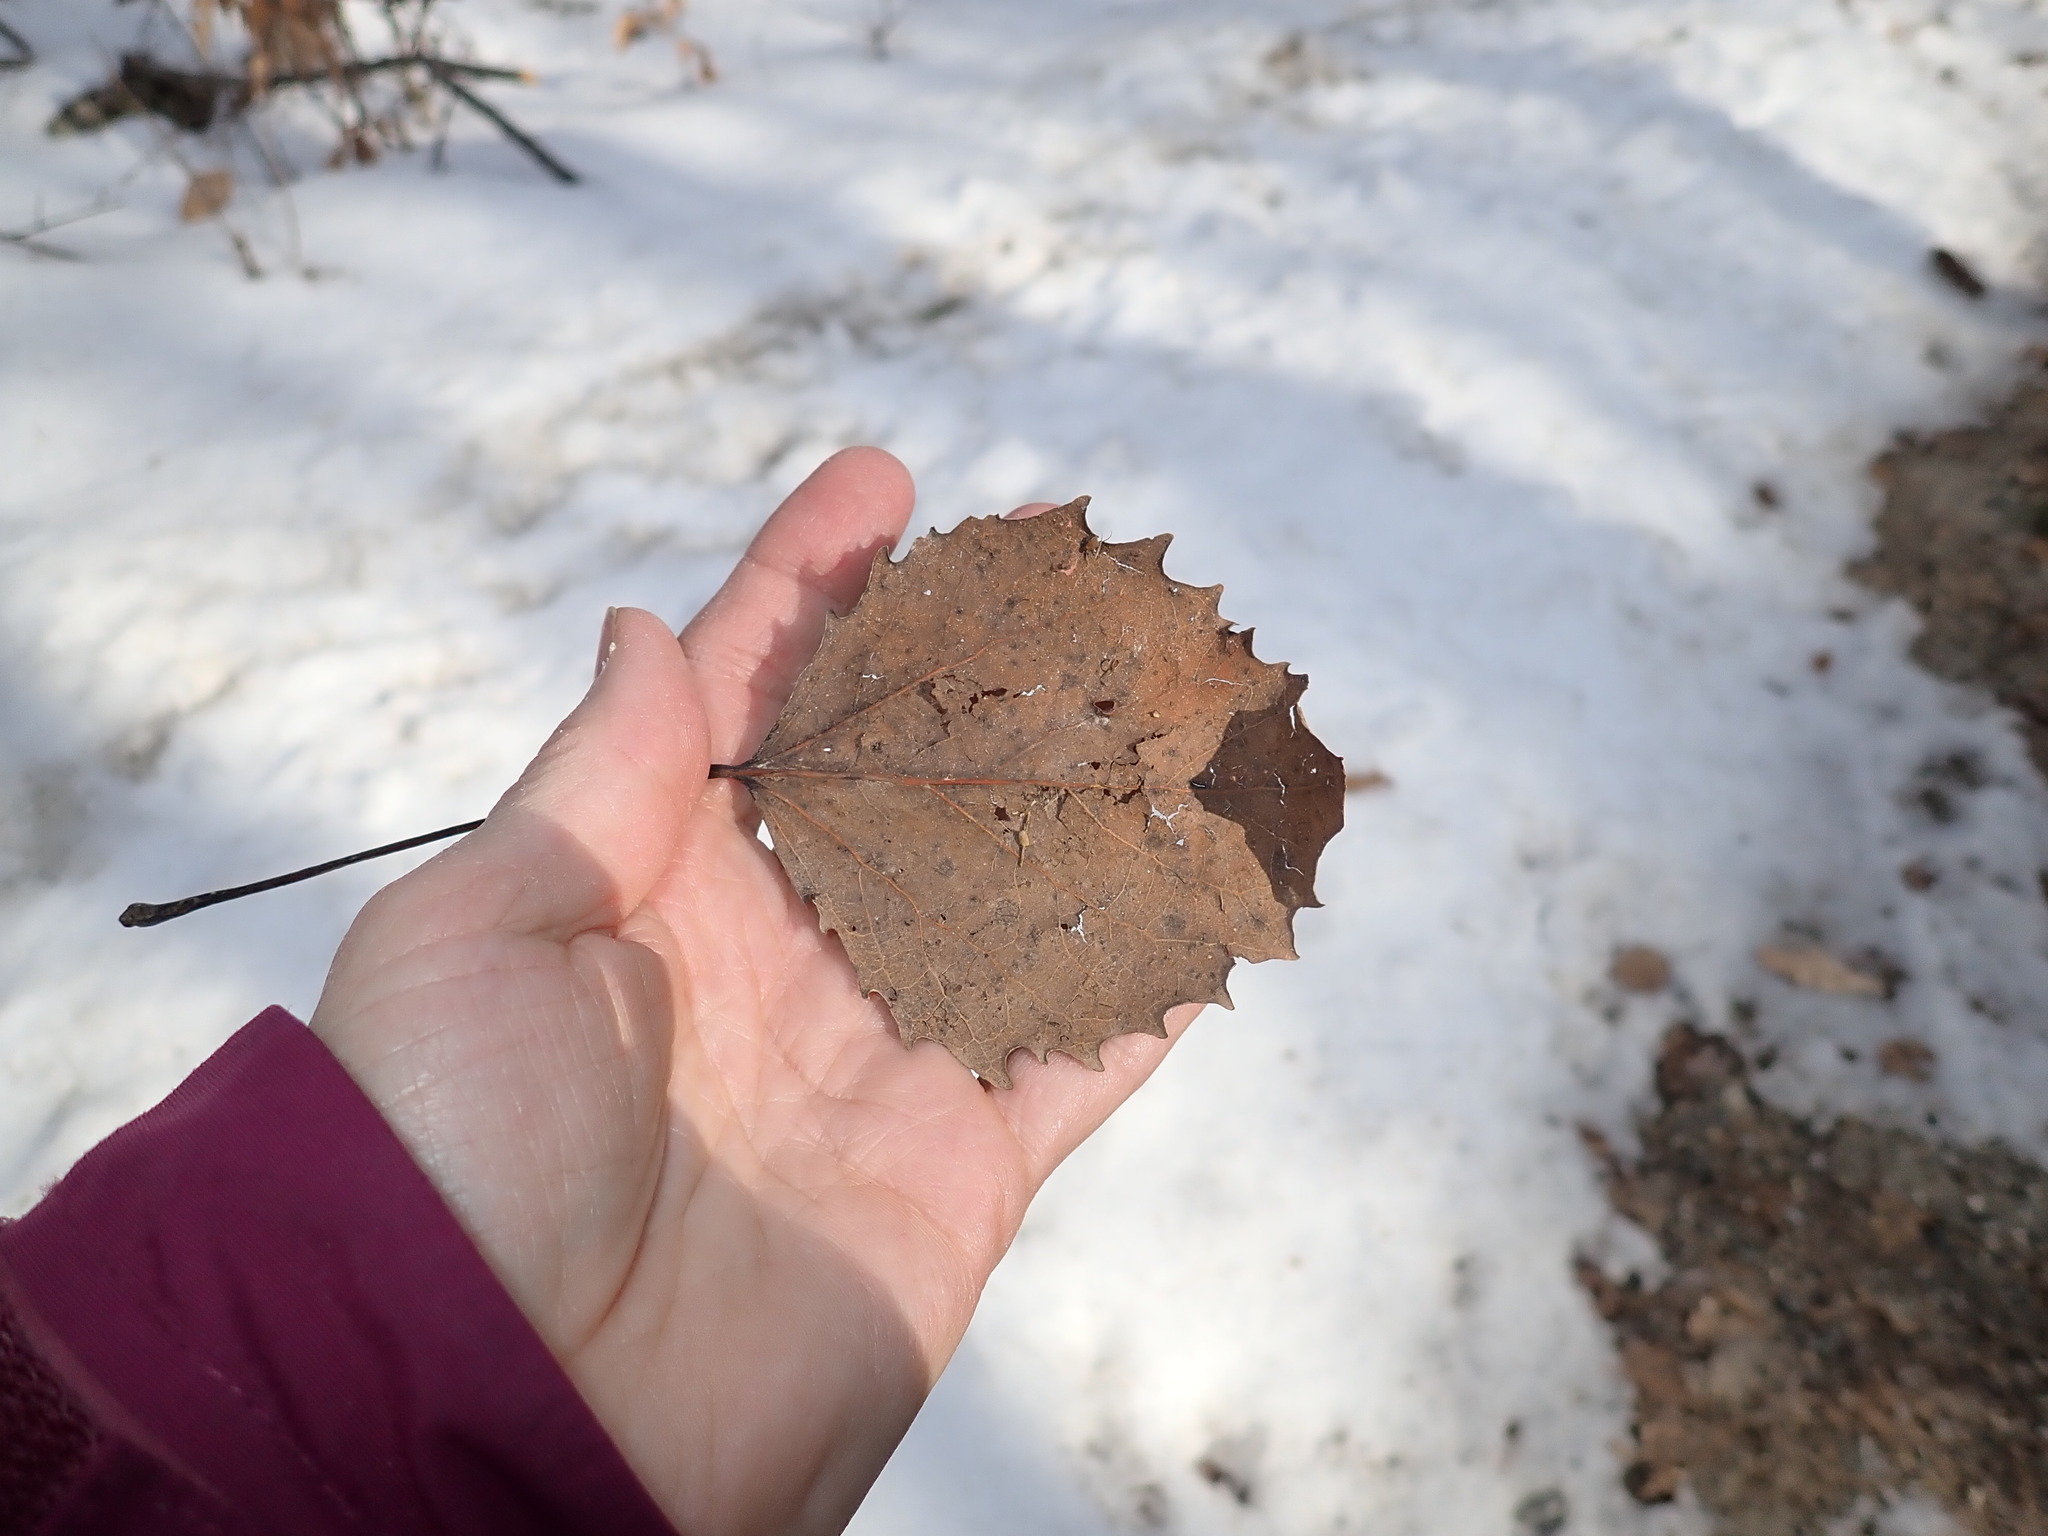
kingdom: Plantae
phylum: Tracheophyta
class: Magnoliopsida
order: Malpighiales
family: Salicaceae
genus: Populus
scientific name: Populus grandidentata
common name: Bigtooth aspen
